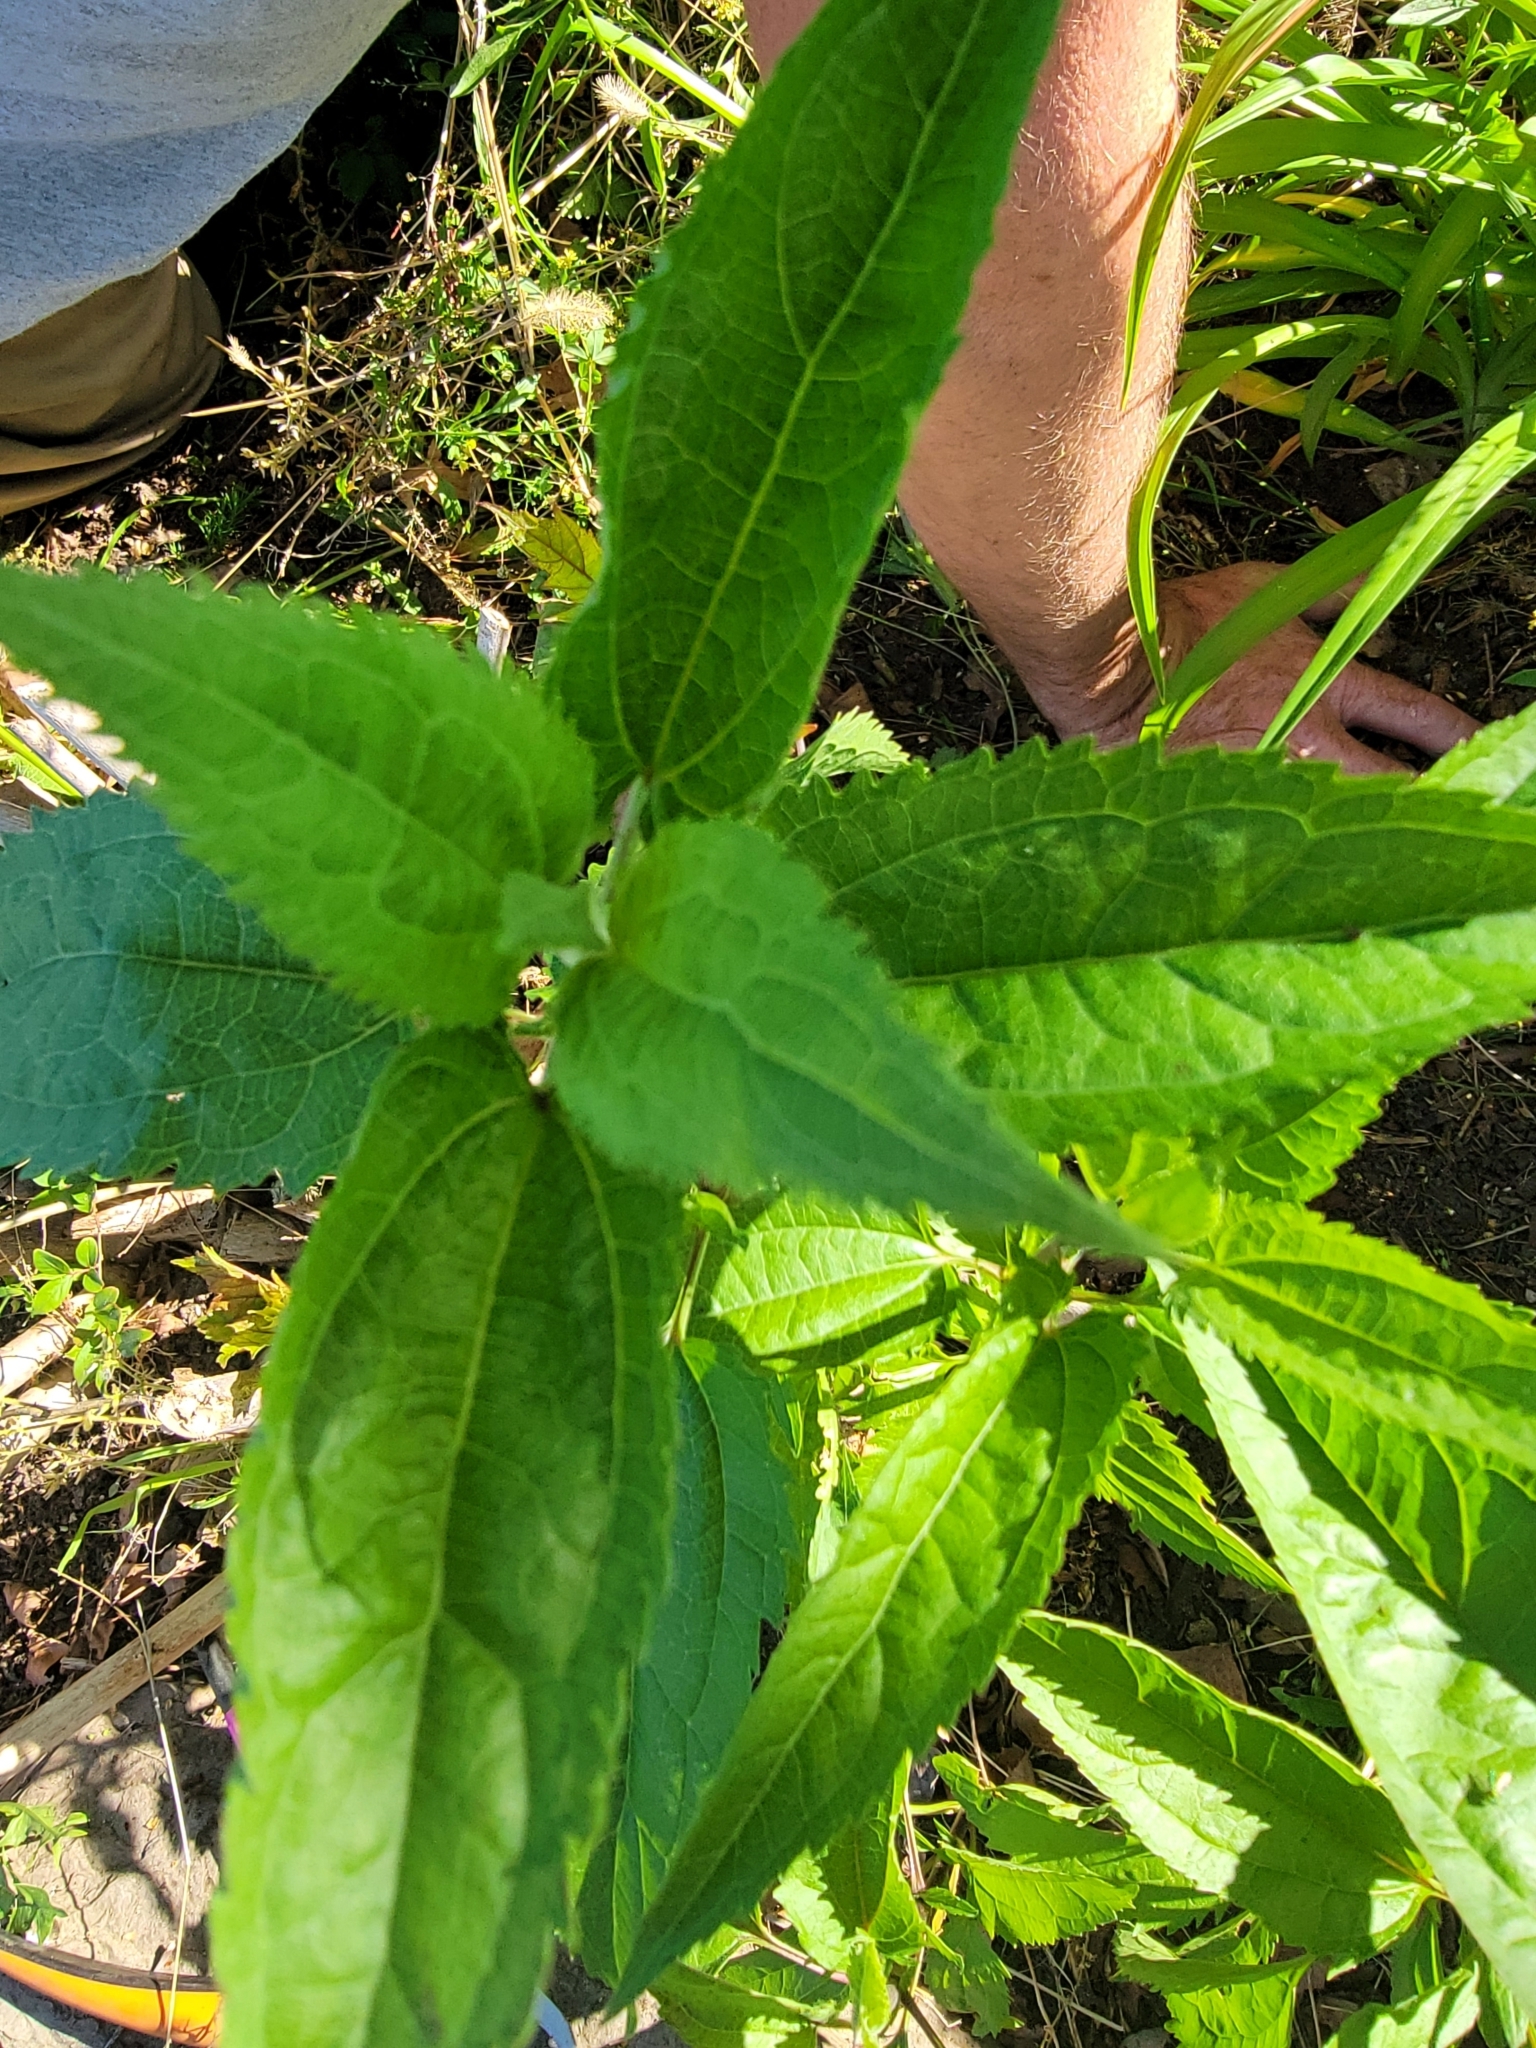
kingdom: Plantae
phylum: Tracheophyta
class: Magnoliopsida
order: Asterales
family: Asteraceae
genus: Eupatorium
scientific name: Eupatorium serotinum
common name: Late boneset
